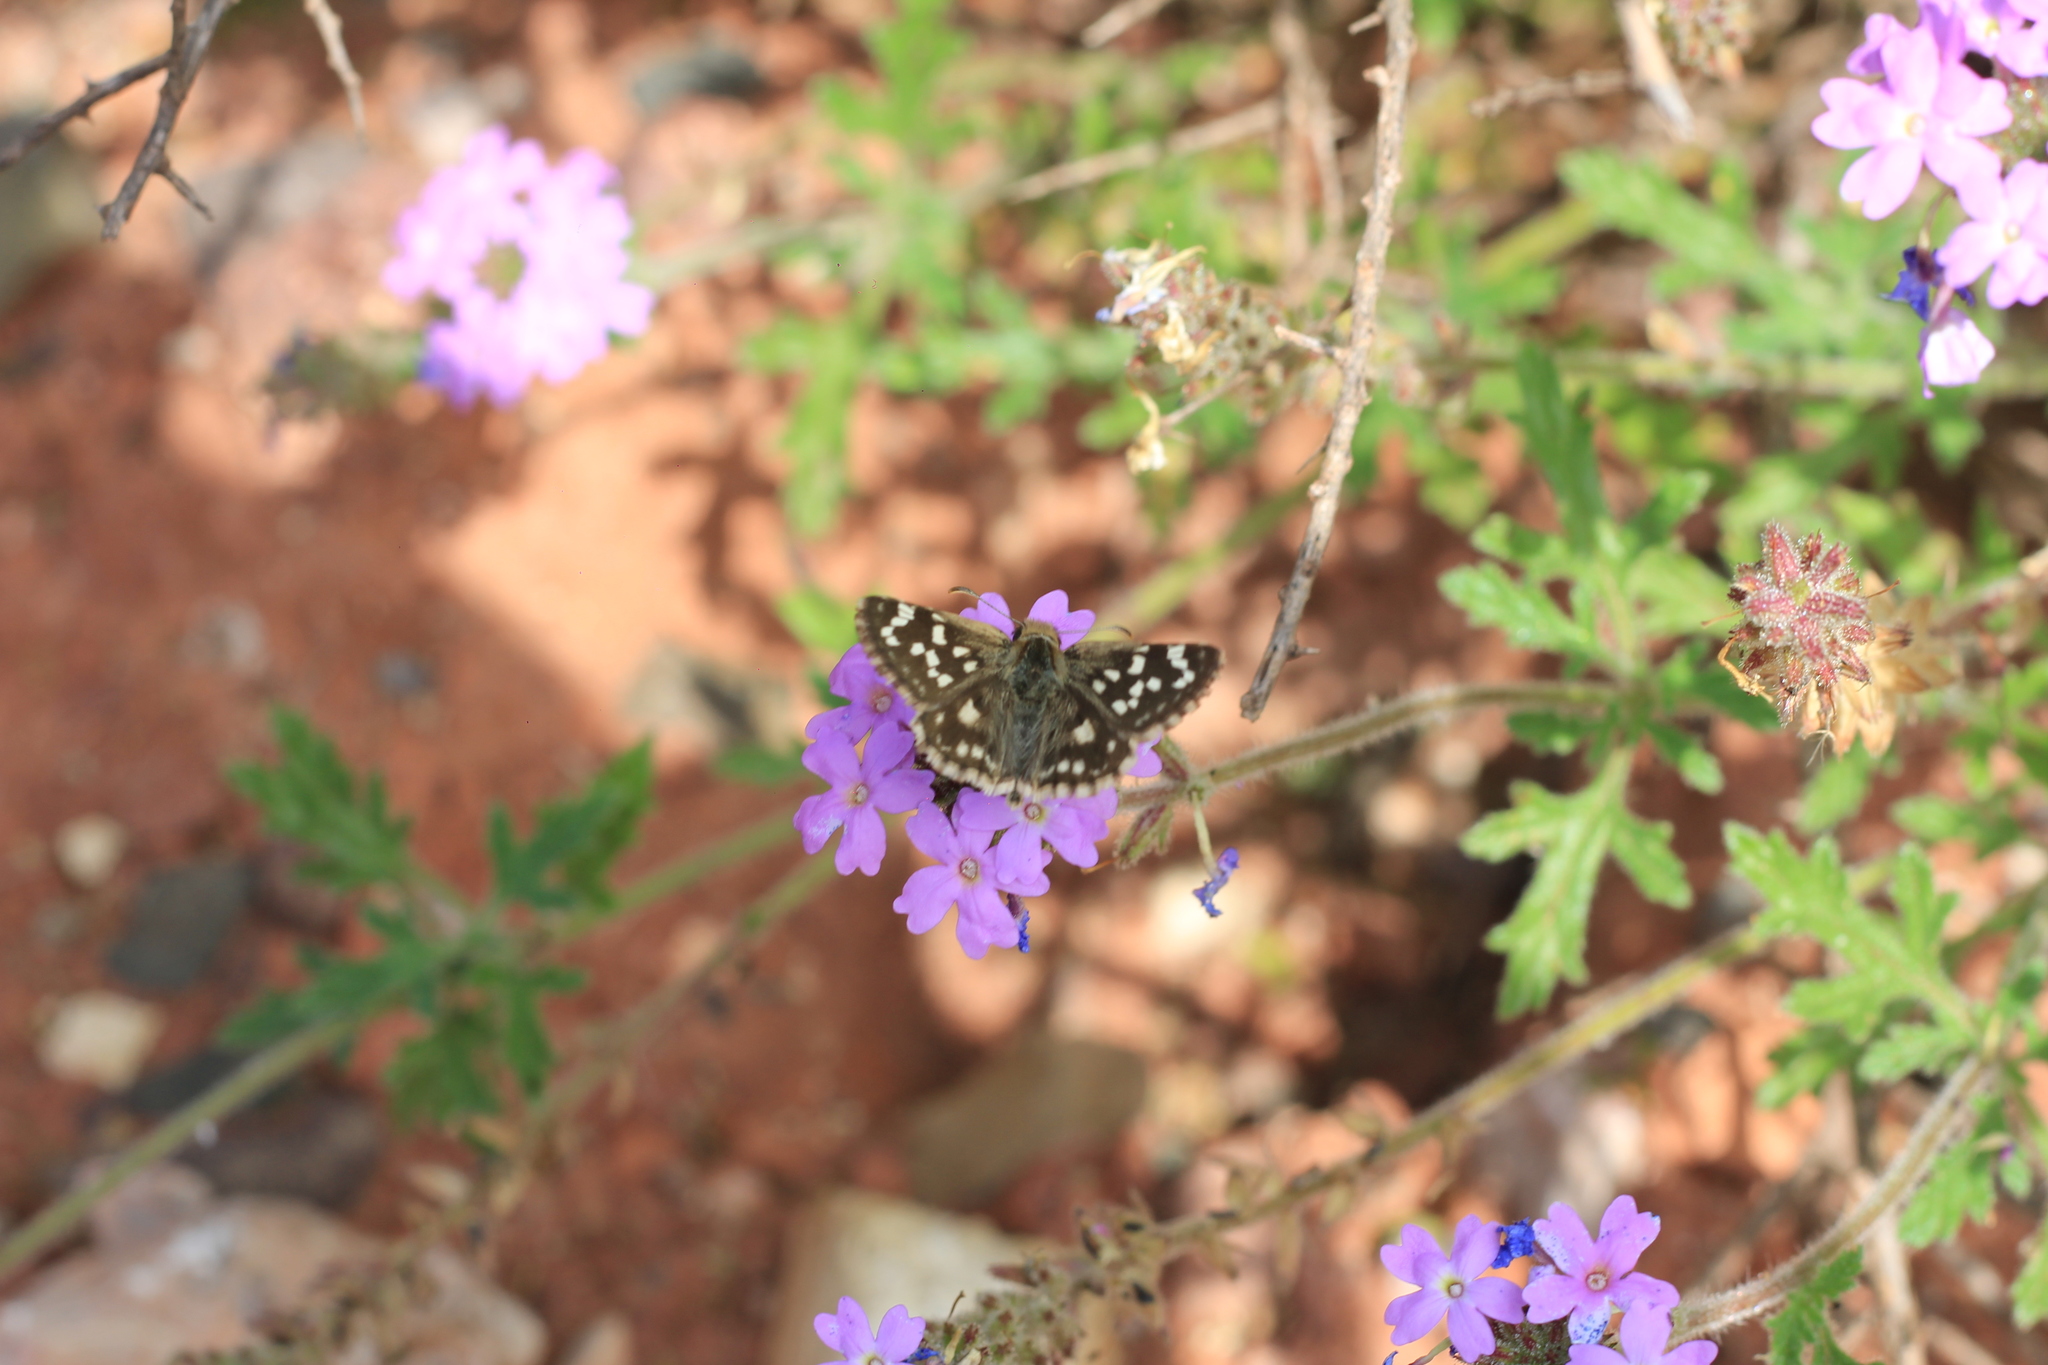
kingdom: Animalia
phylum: Arthropoda
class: Insecta
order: Lepidoptera
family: Hesperiidae
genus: Chirgus
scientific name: Chirgus fides
